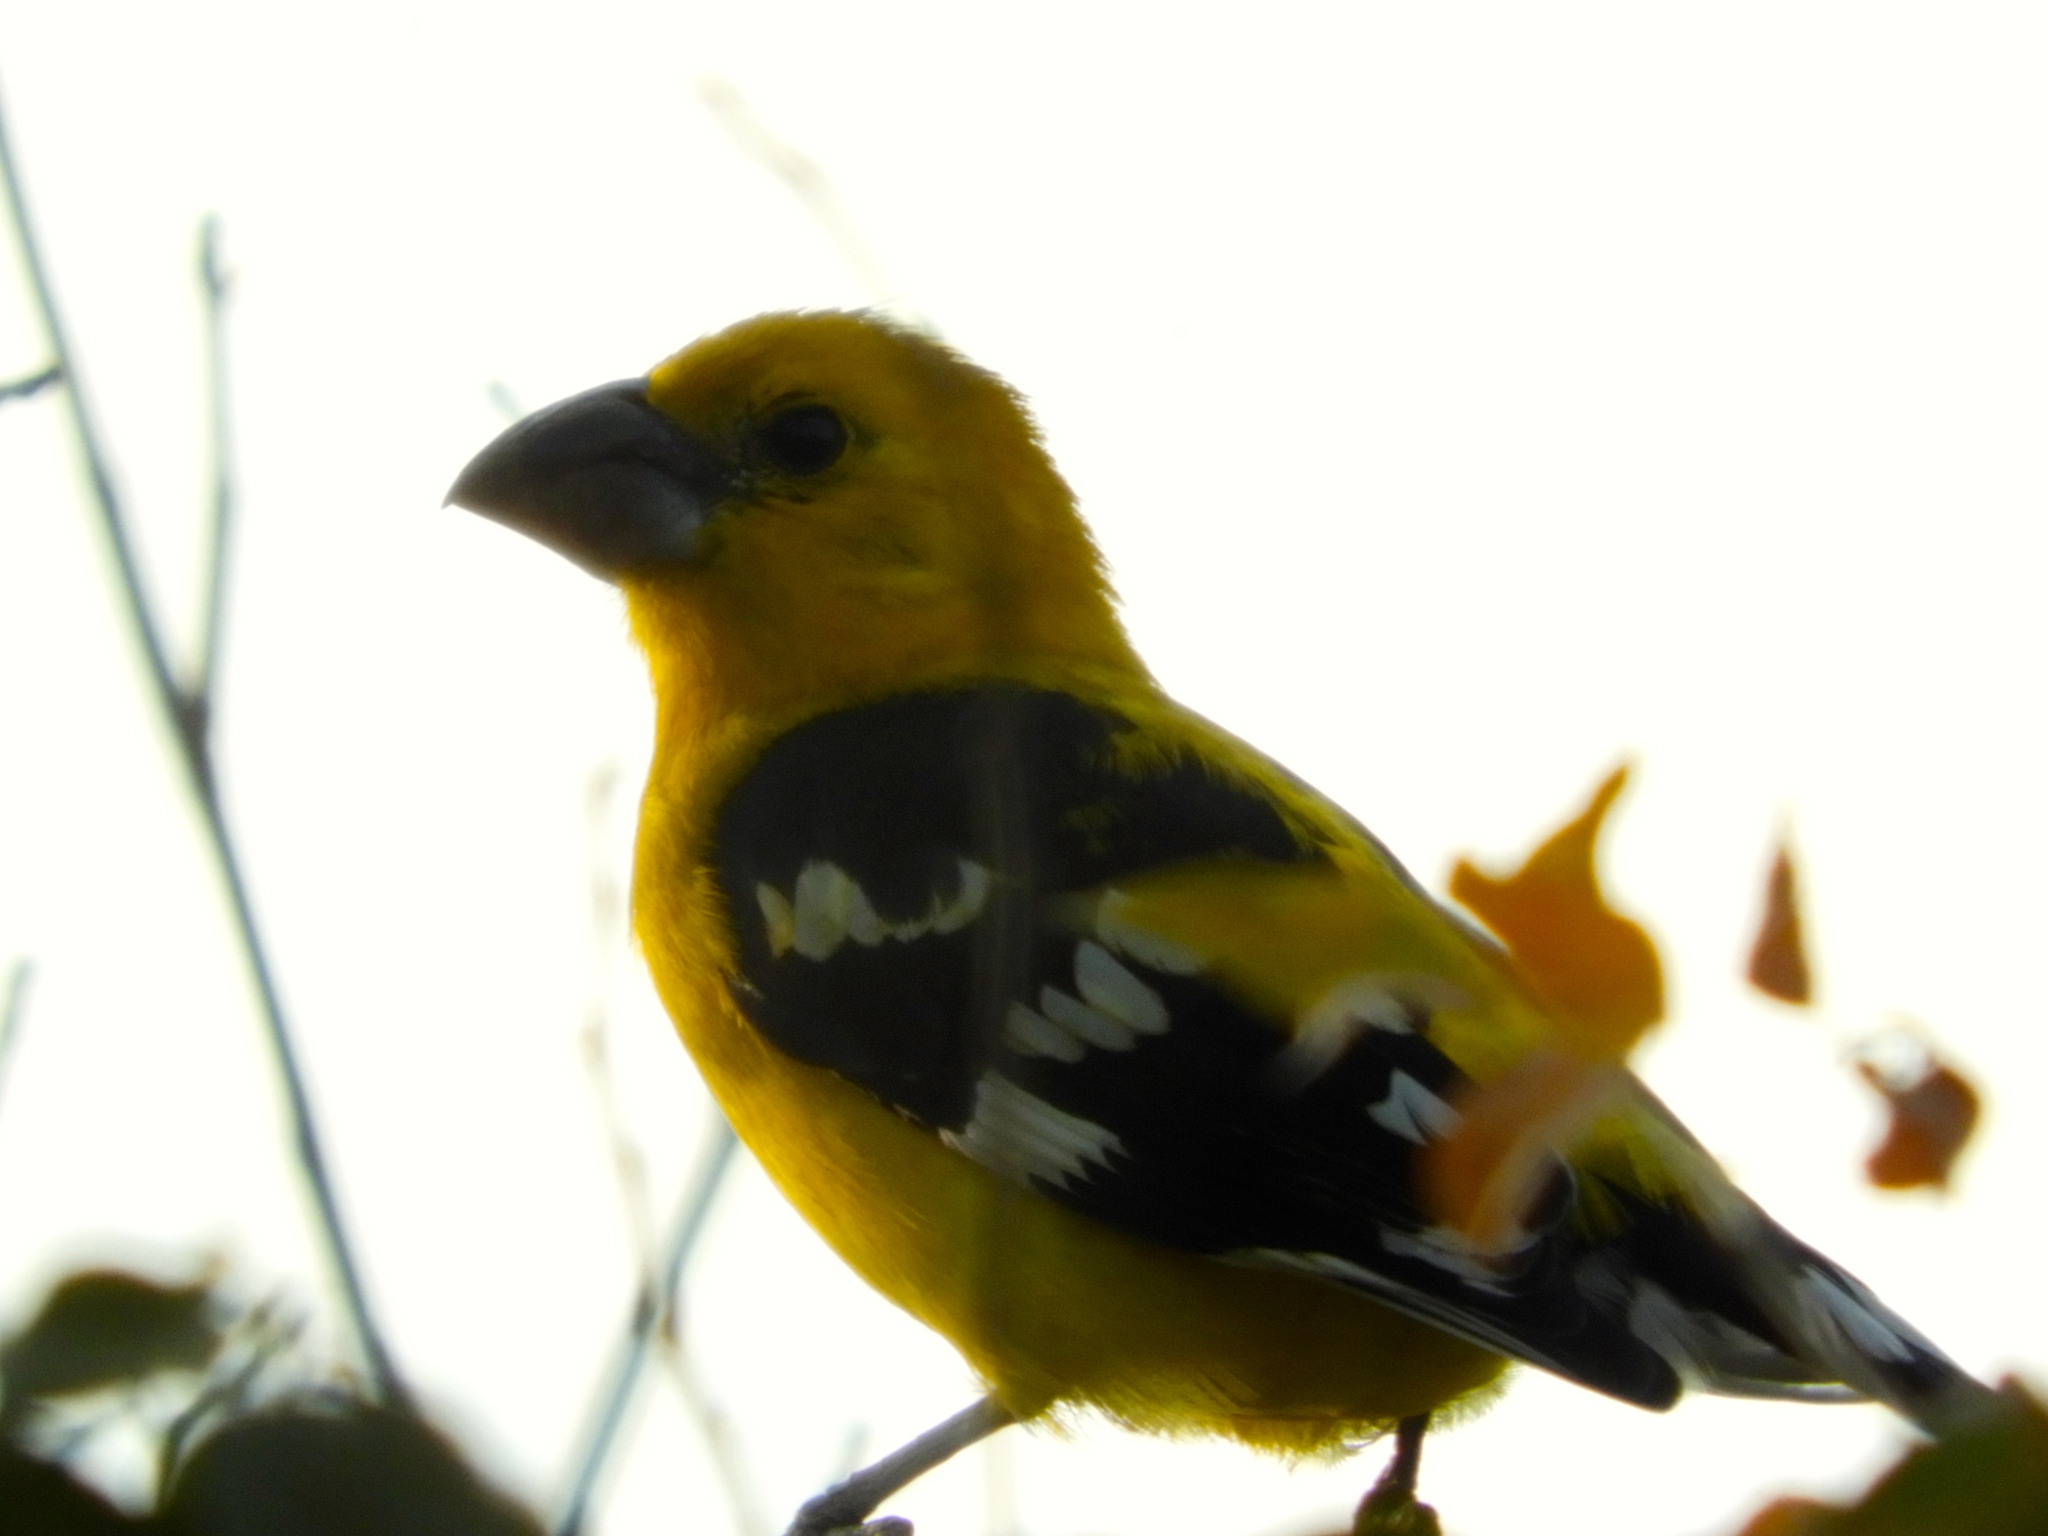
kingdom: Animalia
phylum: Chordata
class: Aves
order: Passeriformes
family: Cardinalidae
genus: Pheucticus
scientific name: Pheucticus chrysopeplus
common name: Yellow grosbeak
